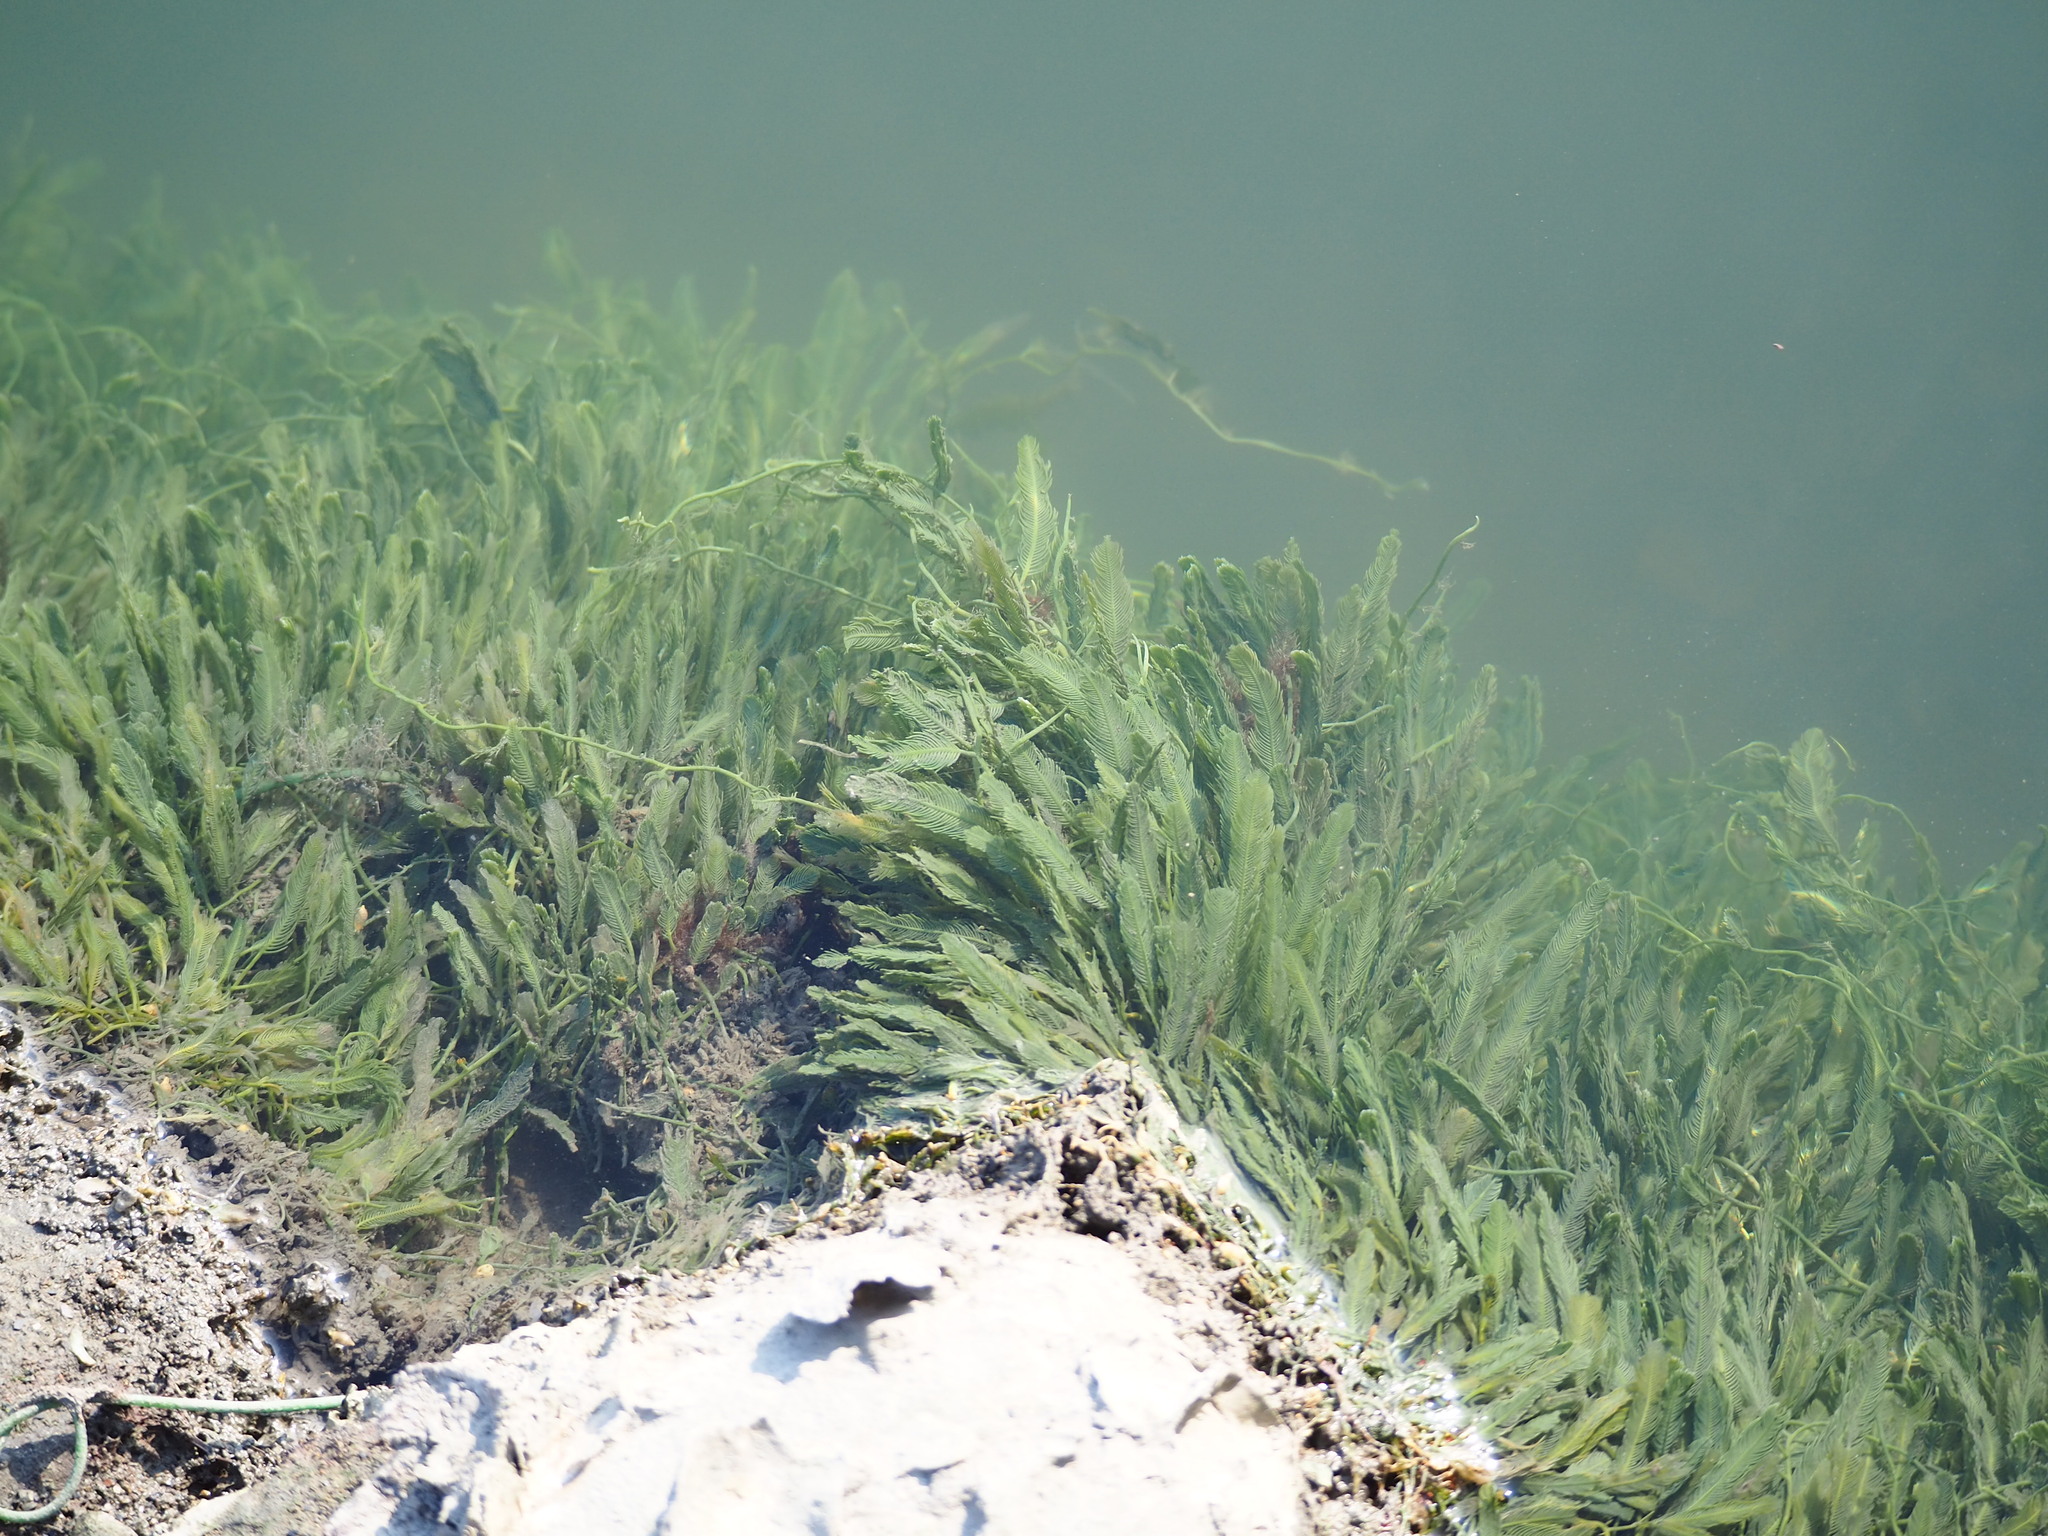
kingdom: Plantae
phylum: Chlorophyta
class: Ulvophyceae
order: Bryopsidales
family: Caulerpaceae
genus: Caulerpa
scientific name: Caulerpa sertularioides
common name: Green feather algae
